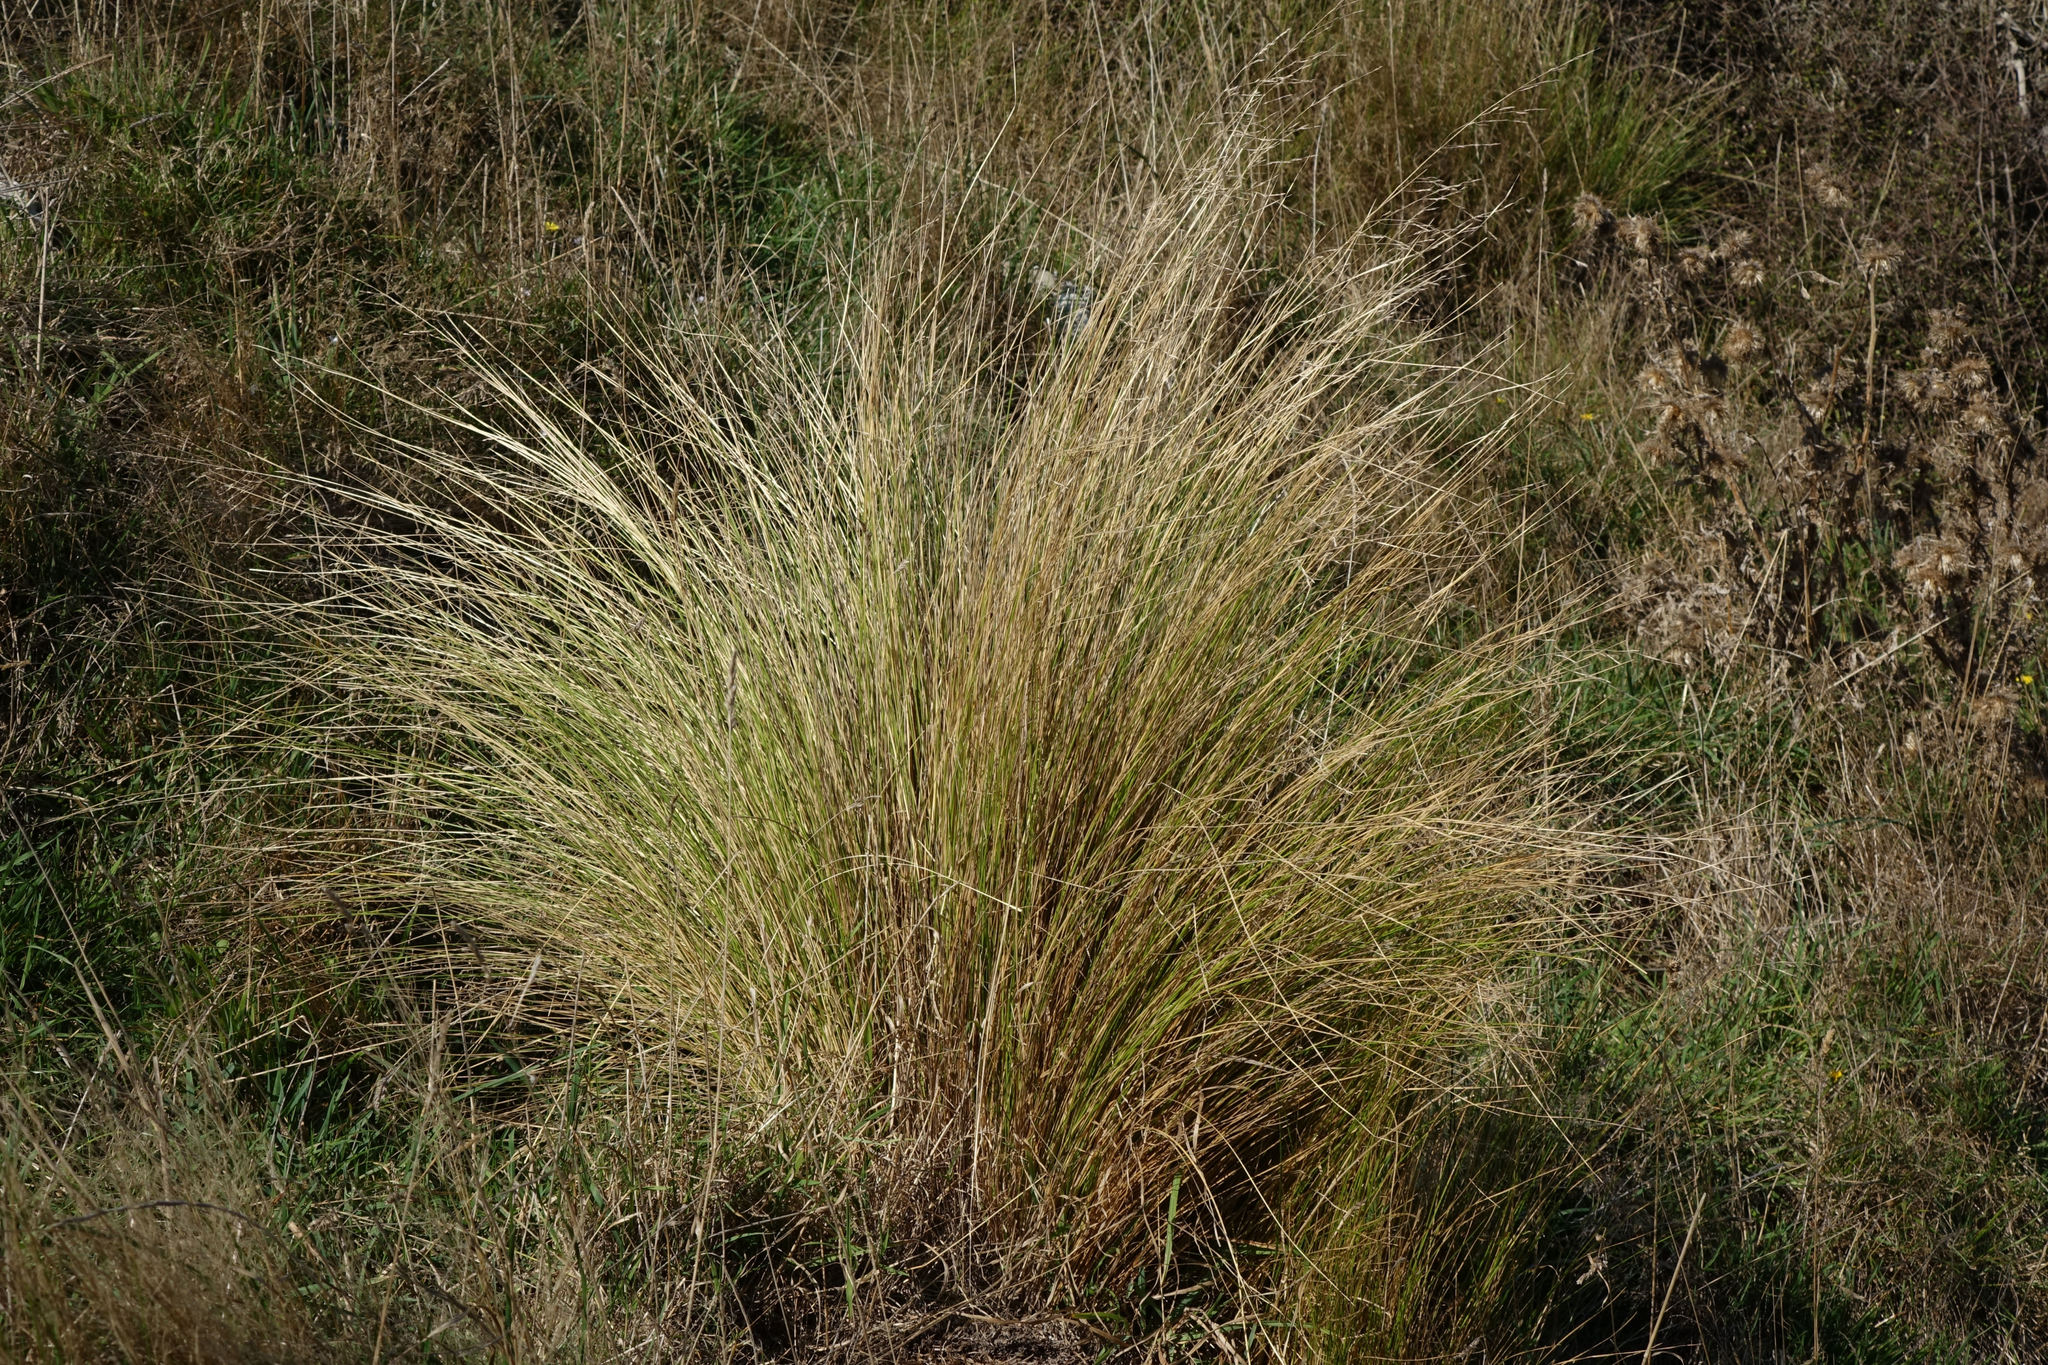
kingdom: Plantae
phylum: Tracheophyta
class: Liliopsida
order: Poales
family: Poaceae
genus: Poa
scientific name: Poa cita
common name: Silver tussock
